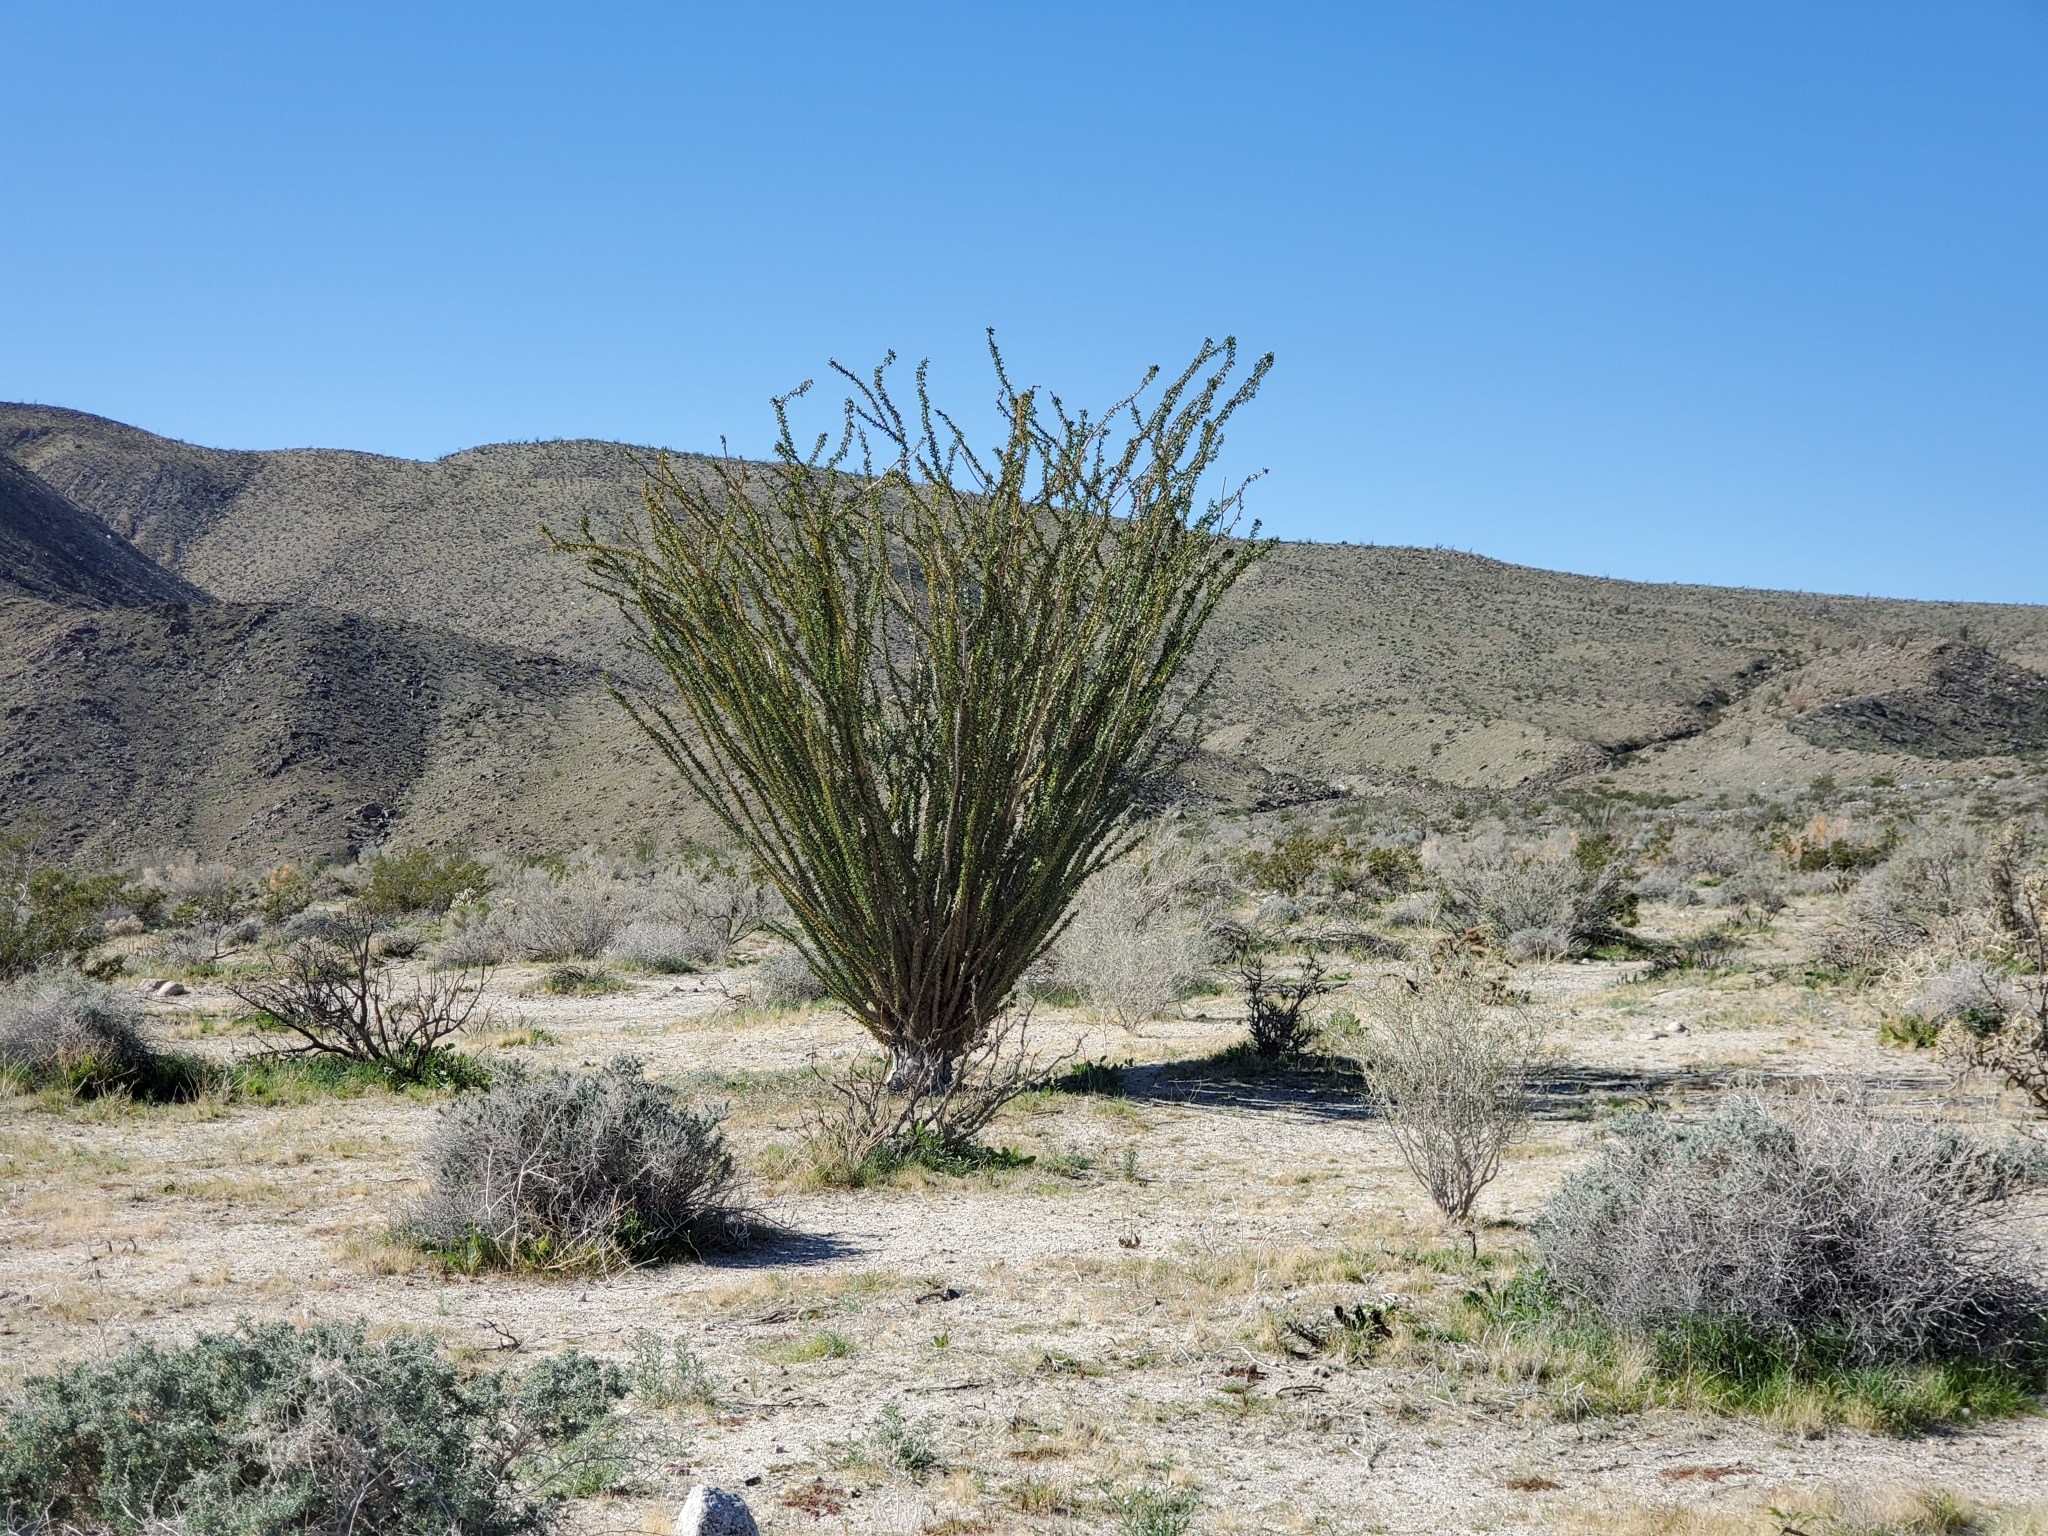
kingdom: Plantae
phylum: Tracheophyta
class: Magnoliopsida
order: Ericales
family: Fouquieriaceae
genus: Fouquieria
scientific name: Fouquieria splendens
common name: Vine-cactus
